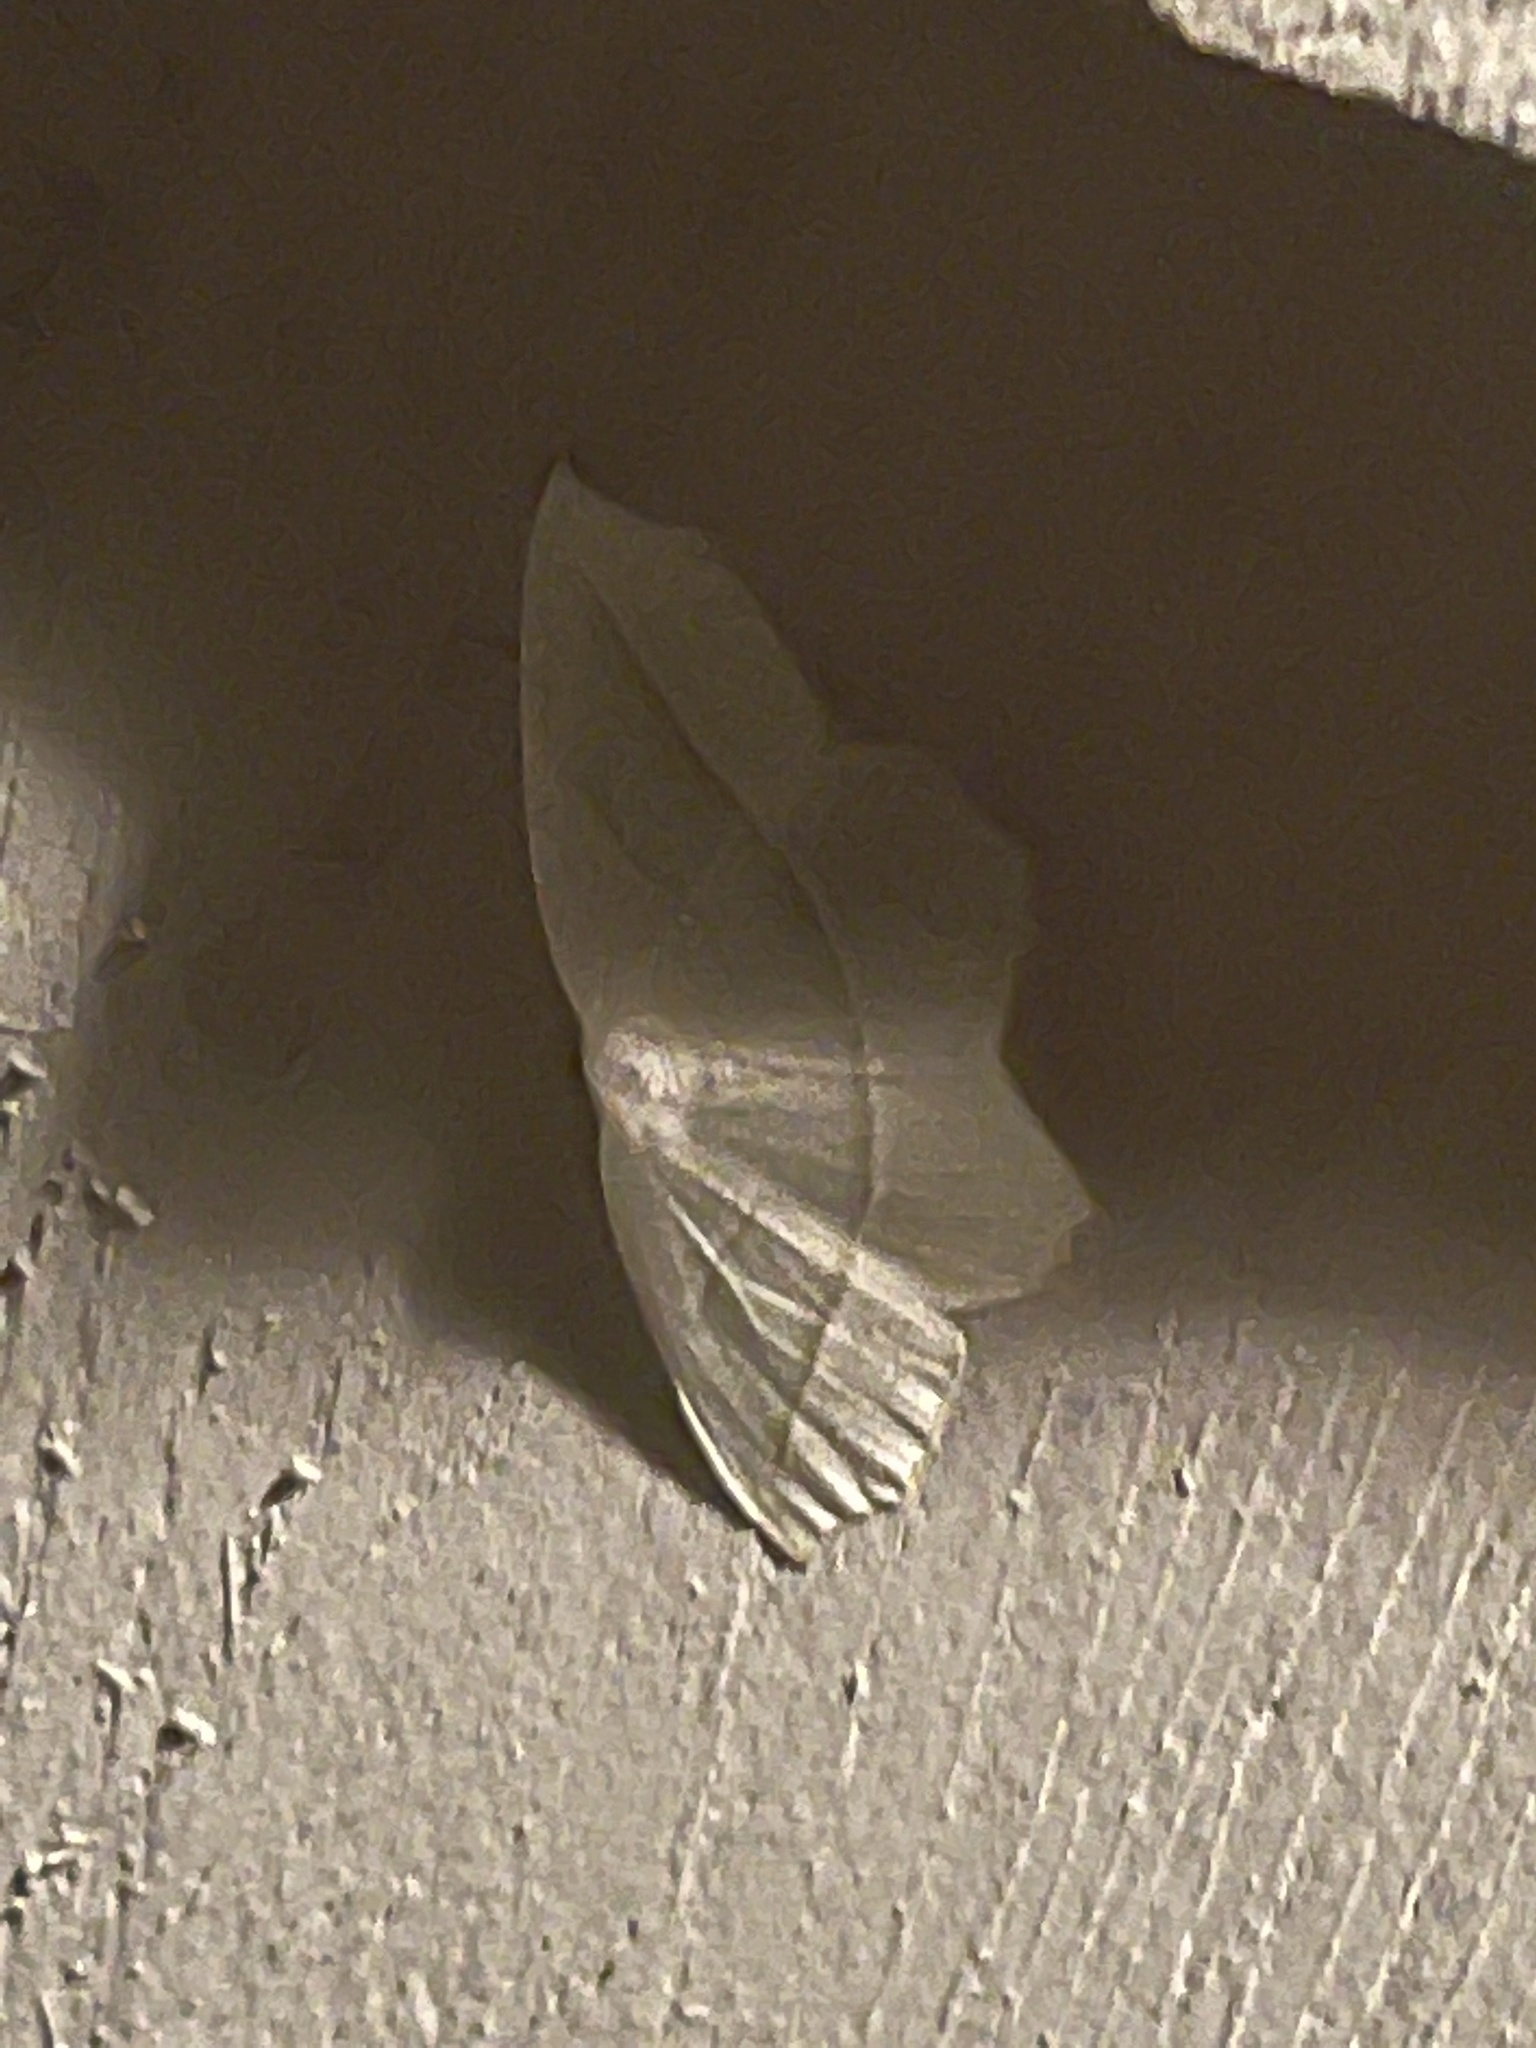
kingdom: Animalia
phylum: Arthropoda
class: Insecta
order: Lepidoptera
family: Geometridae
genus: Campaea
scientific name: Campaea perlata
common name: Fringed looper
